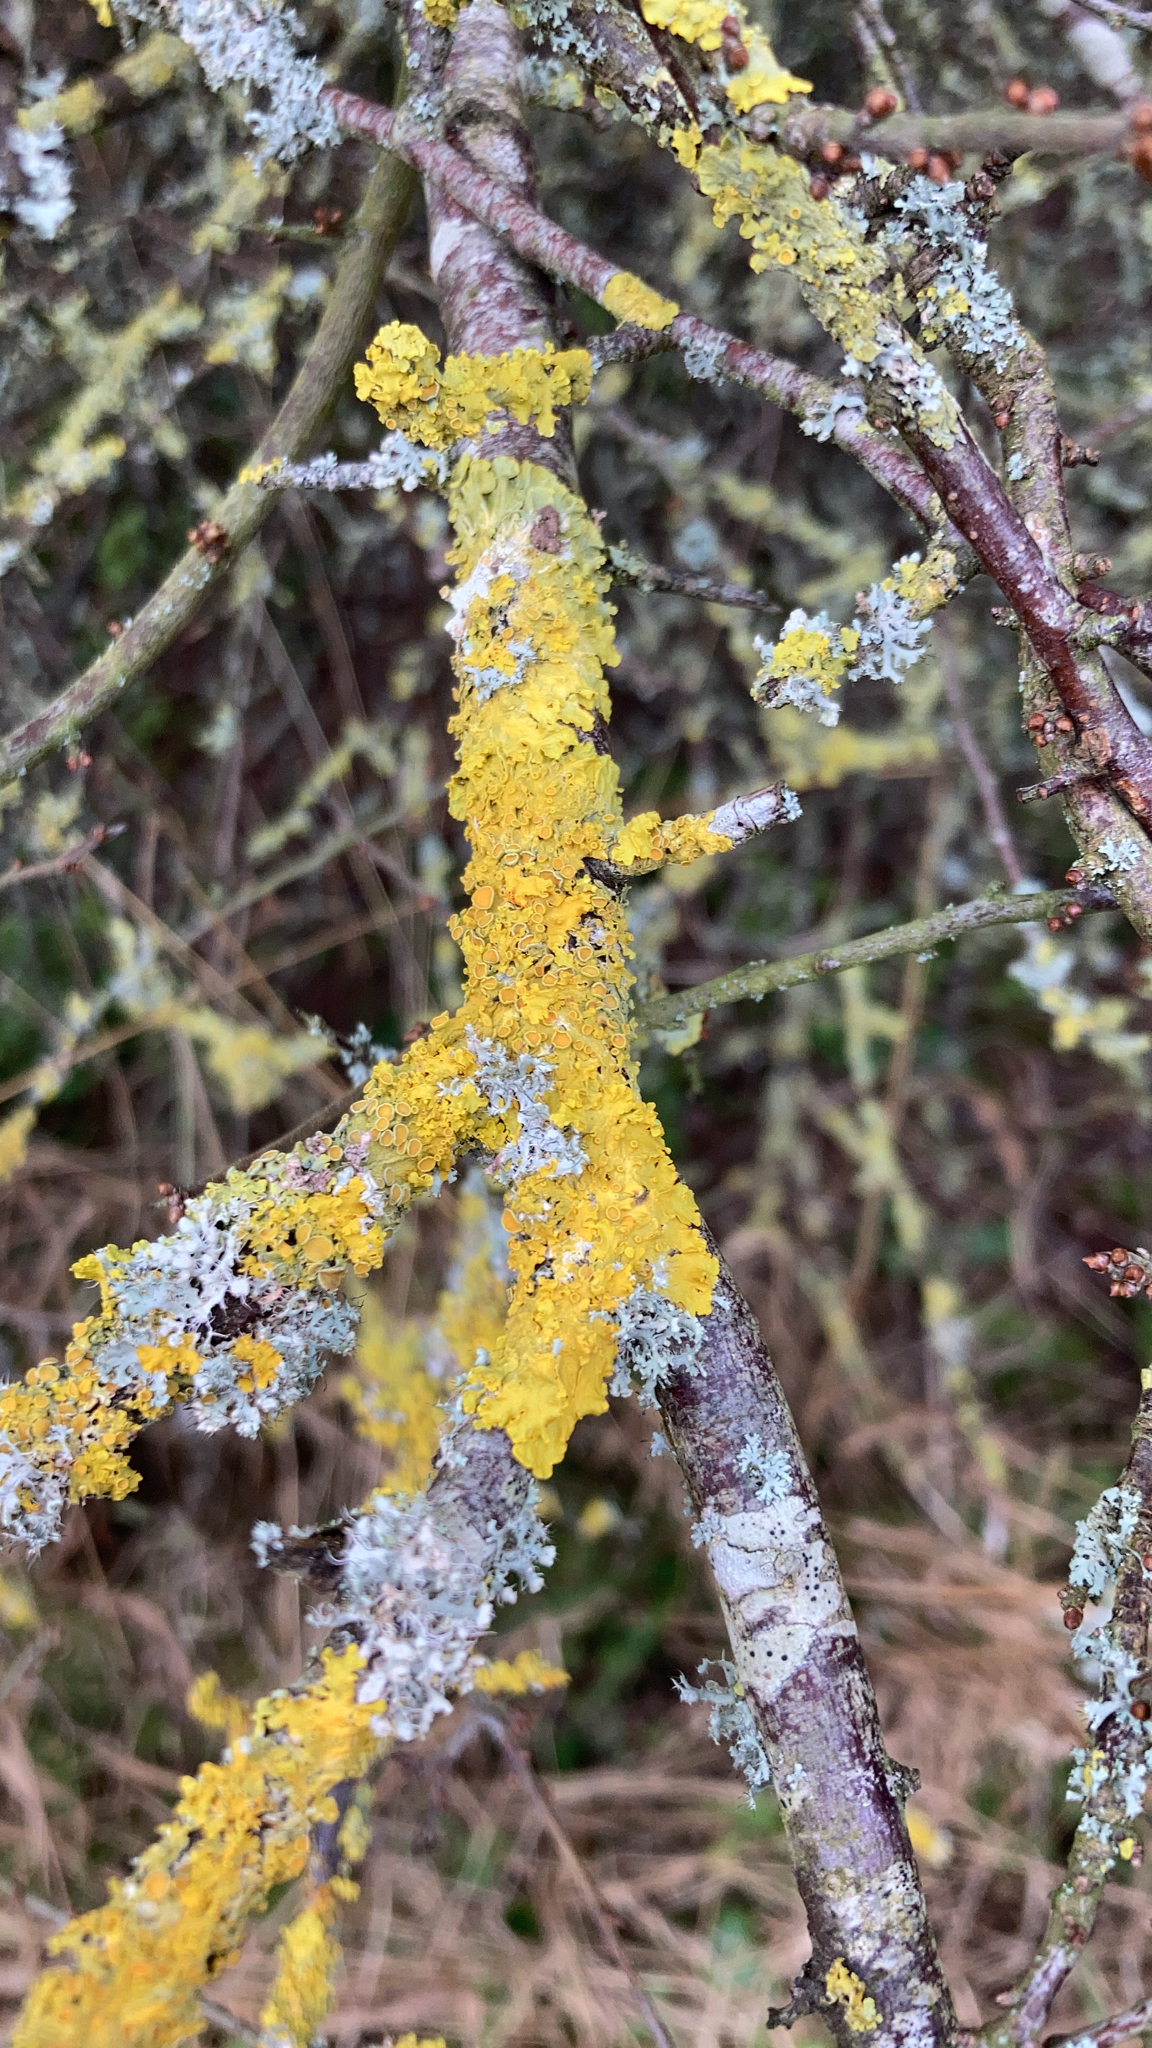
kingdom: Fungi
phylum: Ascomycota
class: Lecanoromycetes
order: Teloschistales
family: Teloschistaceae
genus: Xanthoria
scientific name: Xanthoria parietina
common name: Common orange lichen
